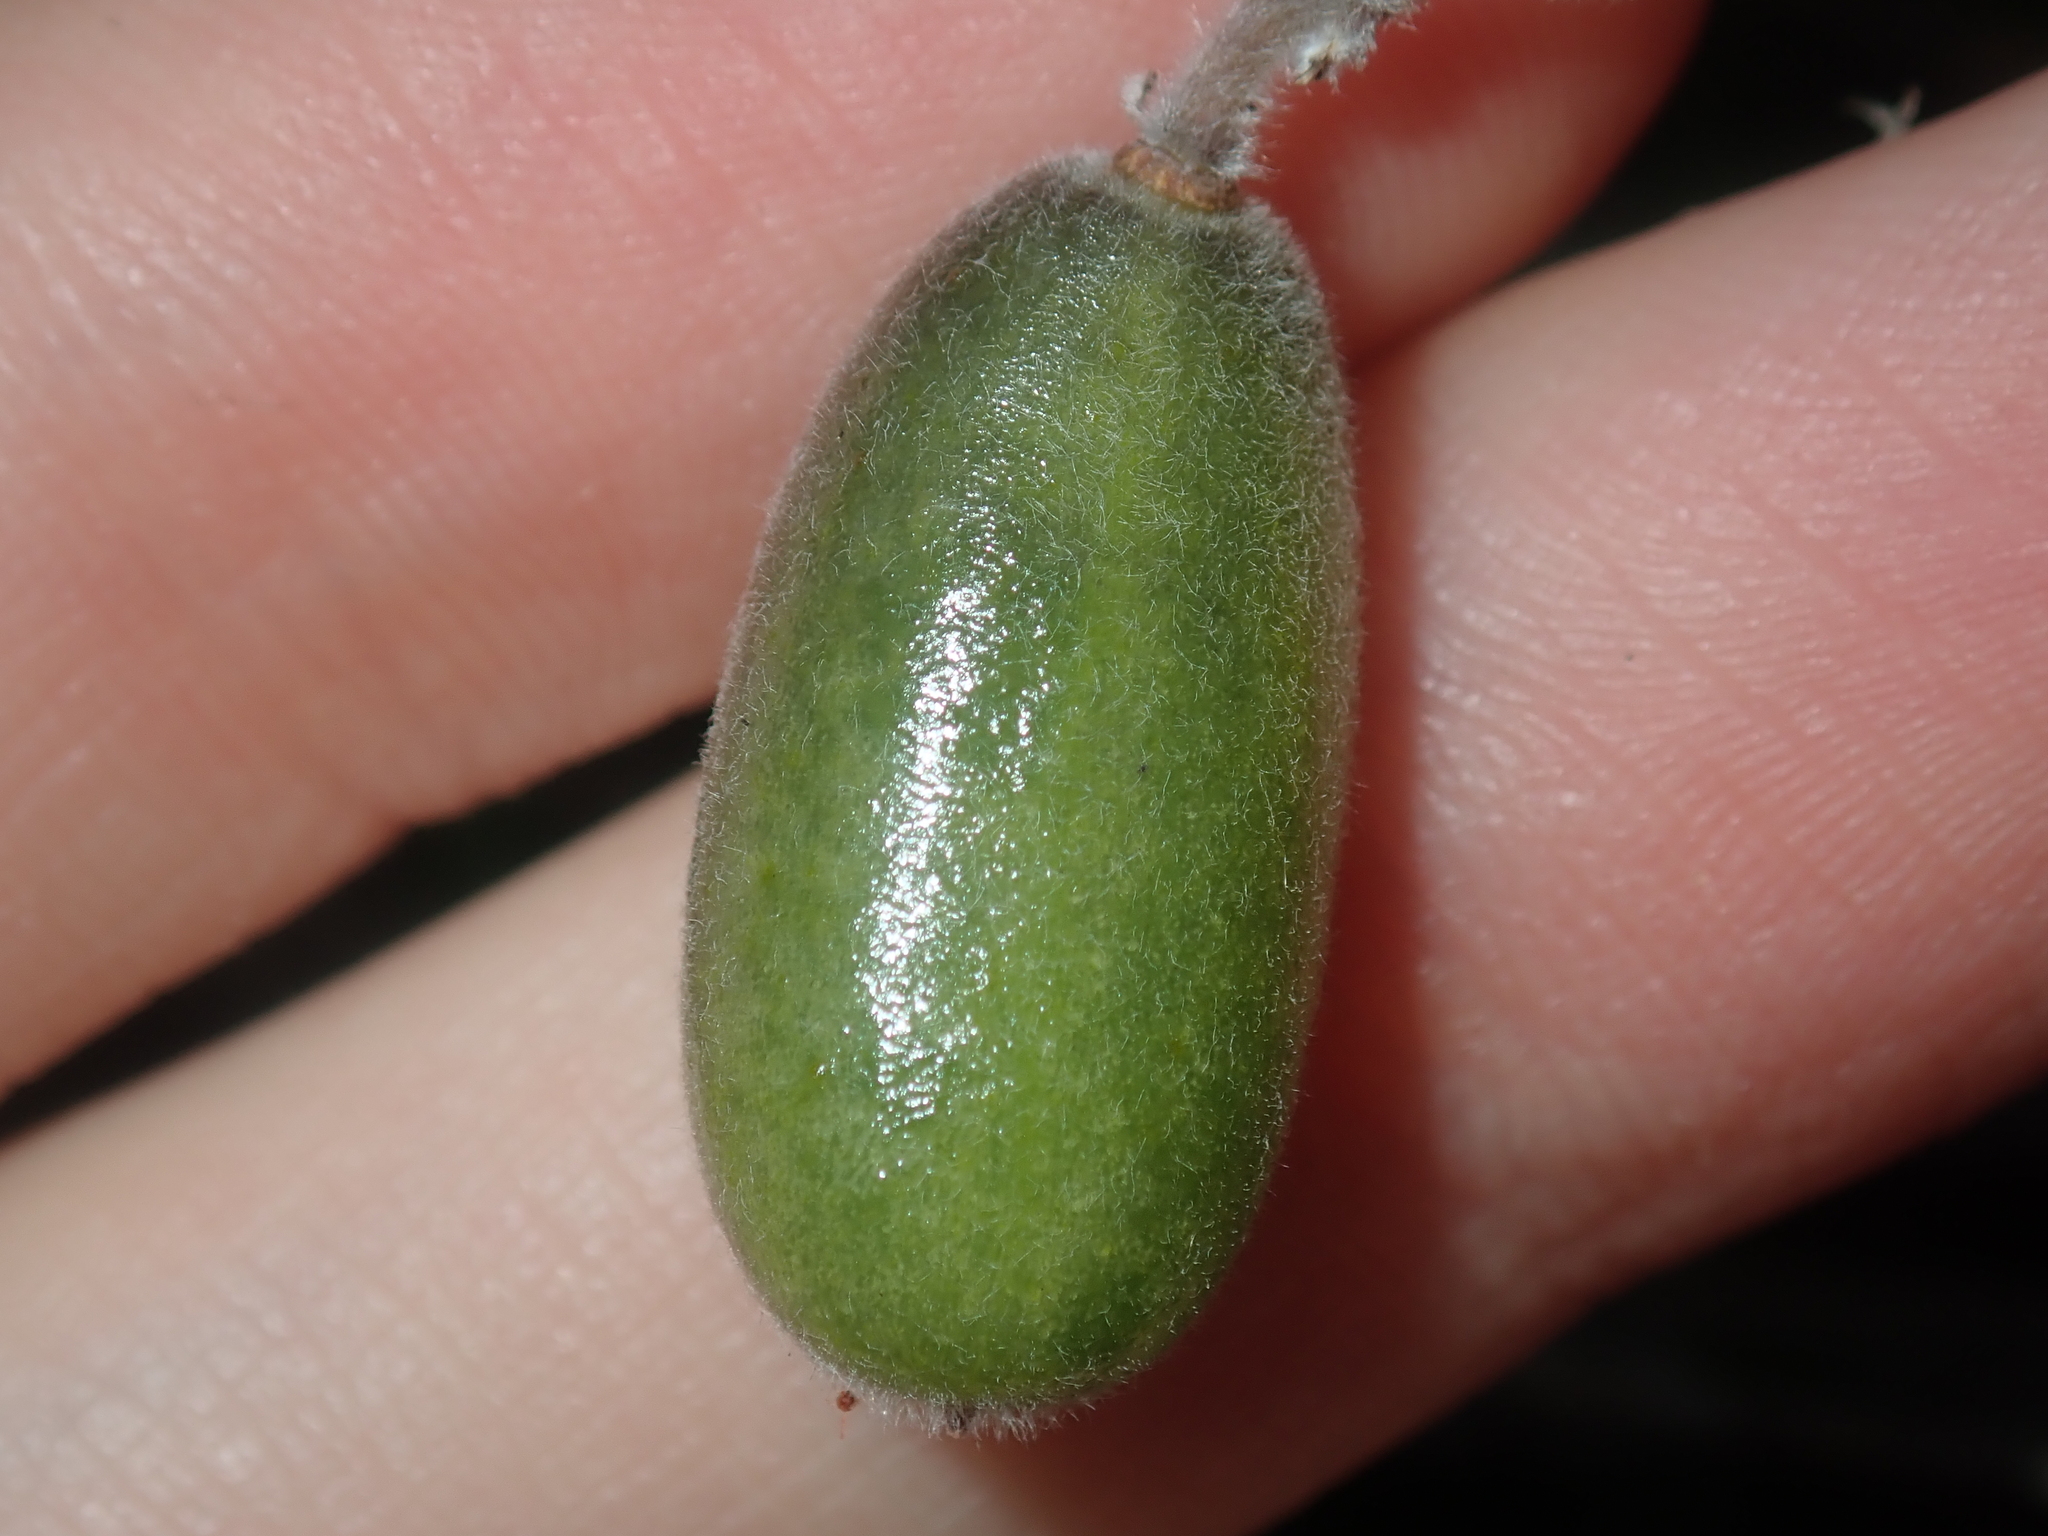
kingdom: Plantae
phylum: Tracheophyta
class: Magnoliopsida
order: Apiales
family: Pittosporaceae
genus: Billardiera
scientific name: Billardiera fraseri
